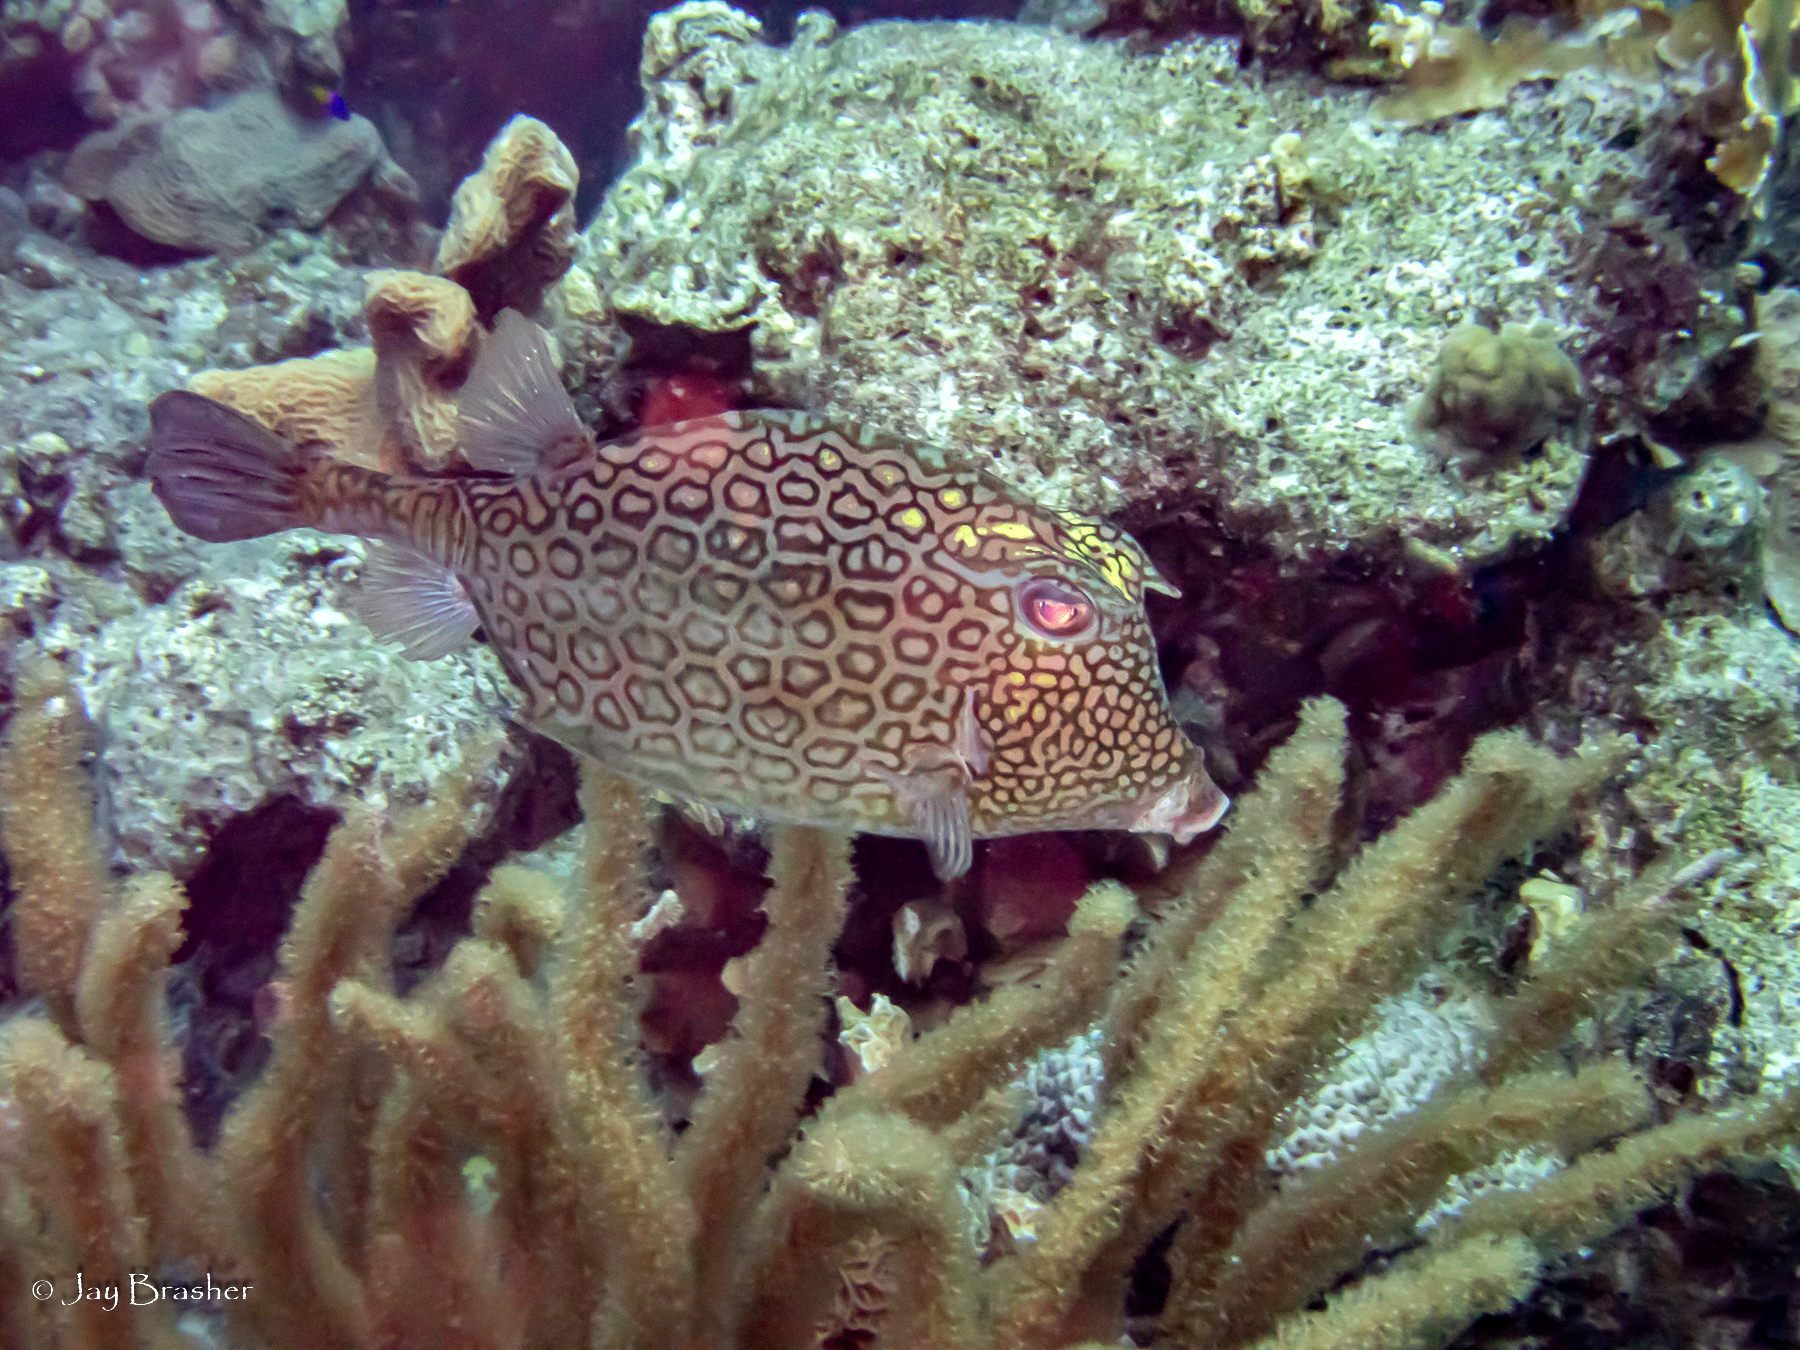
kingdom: Animalia
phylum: Chordata
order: Tetraodontiformes
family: Ostraciidae
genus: Acanthostracion
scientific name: Acanthostracion polygonius
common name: Honeycomb cowfish
